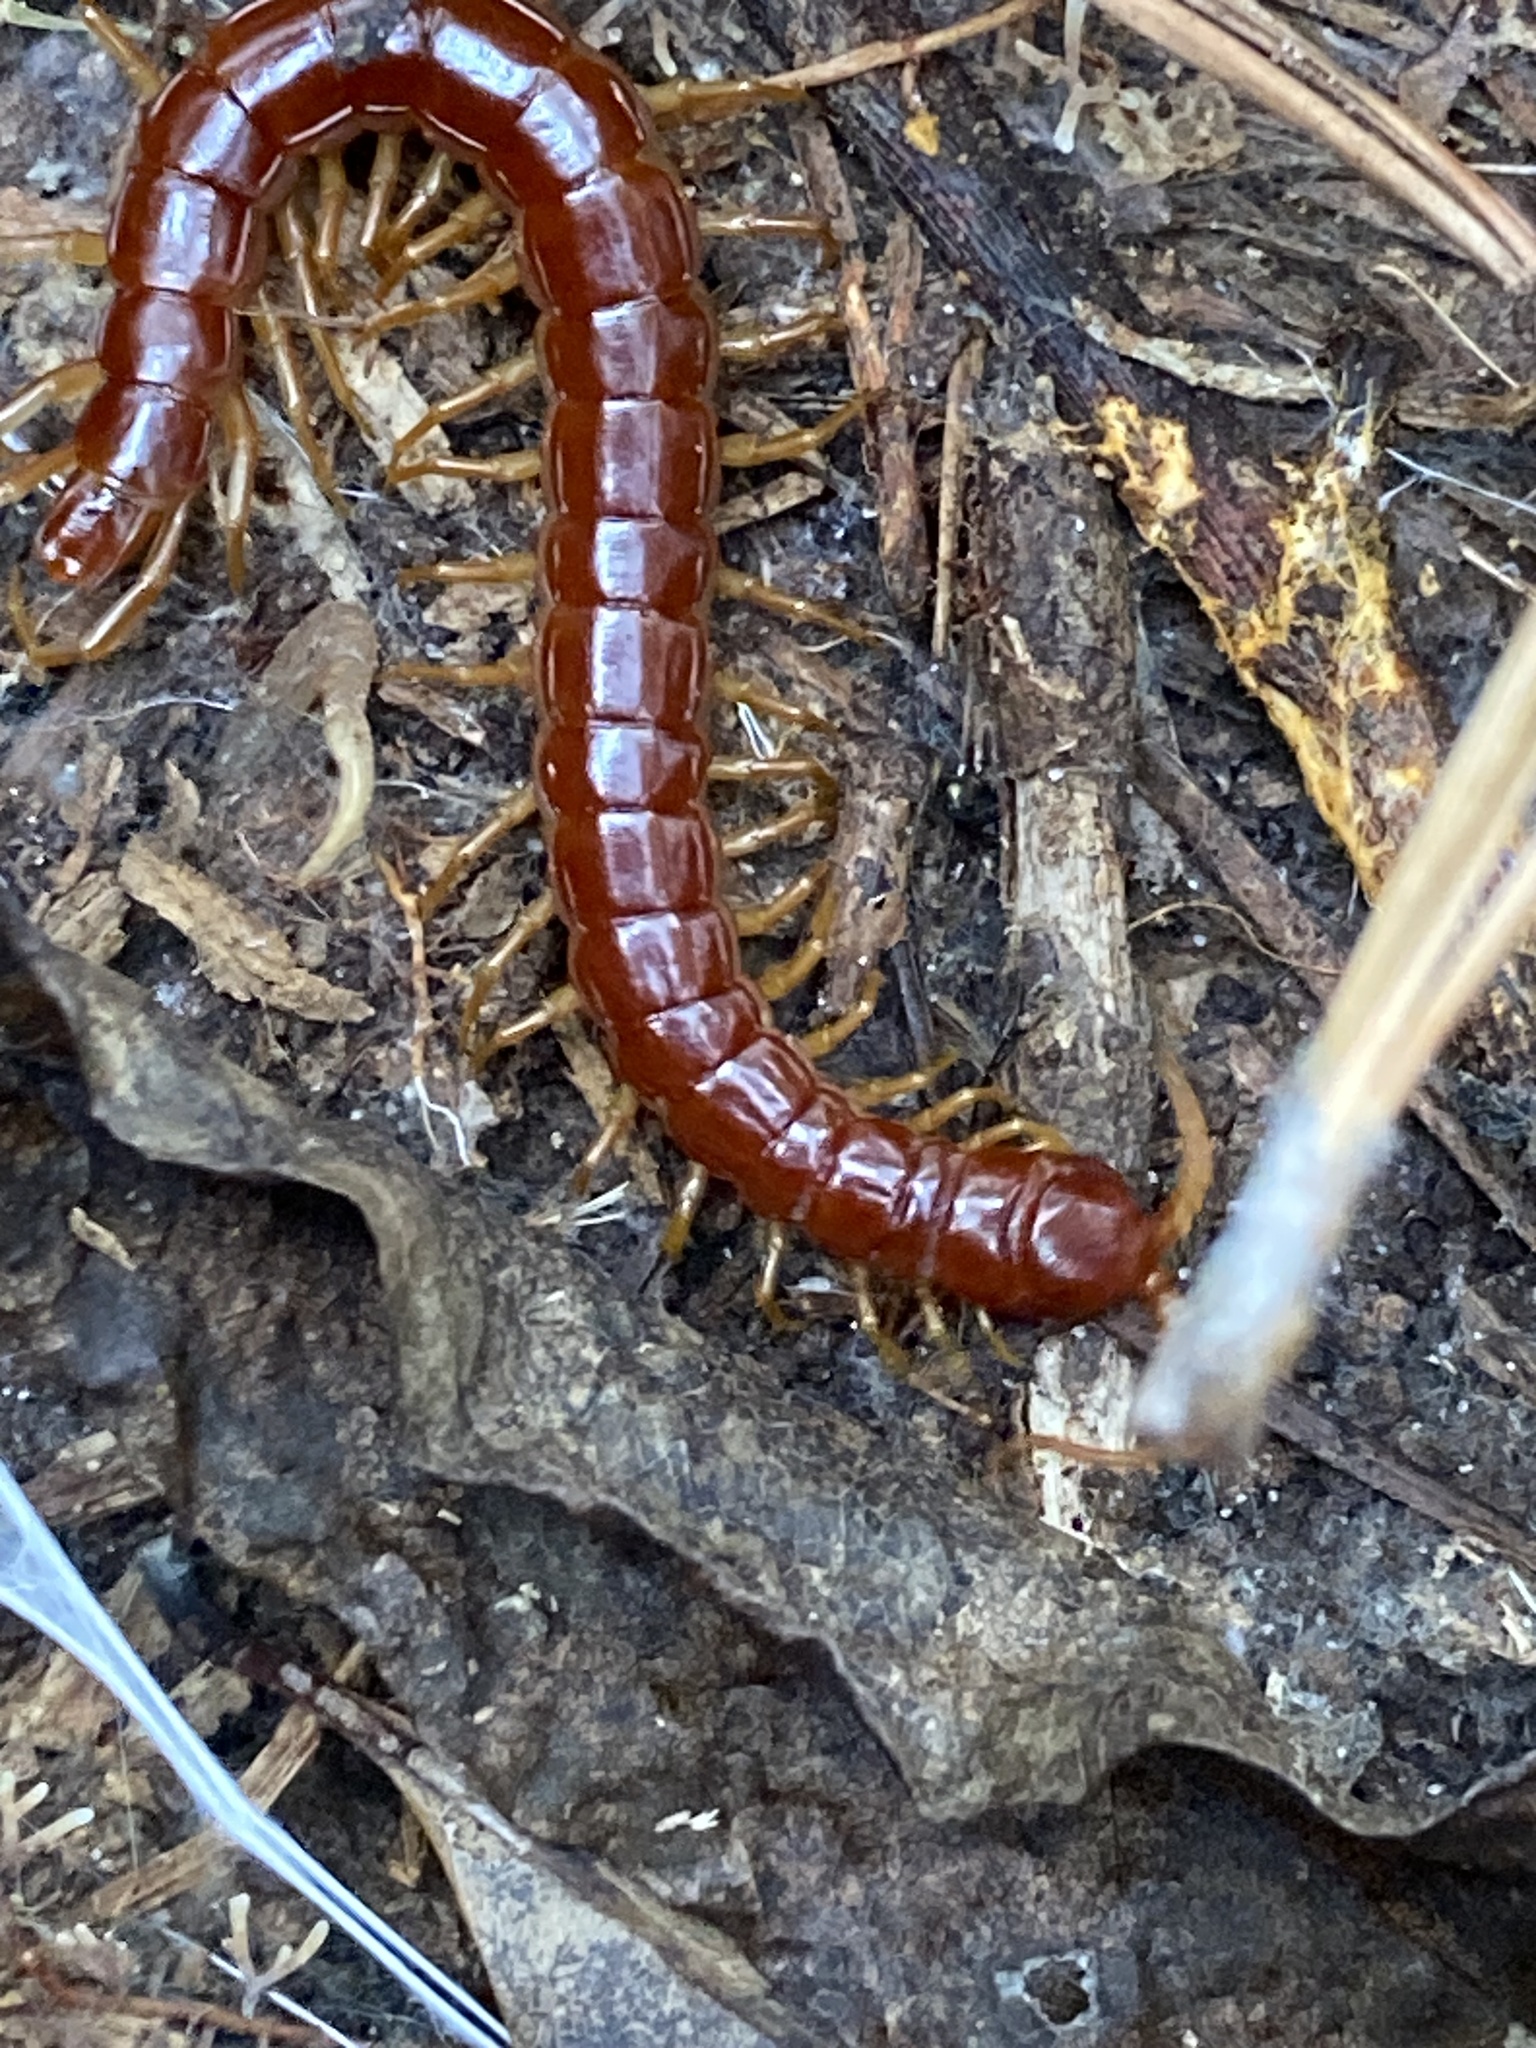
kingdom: Animalia
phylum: Arthropoda
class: Chilopoda
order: Scolopendromorpha
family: Scolopocryptopidae
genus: Scolopocryptops
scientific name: Scolopocryptops sexspinosus
